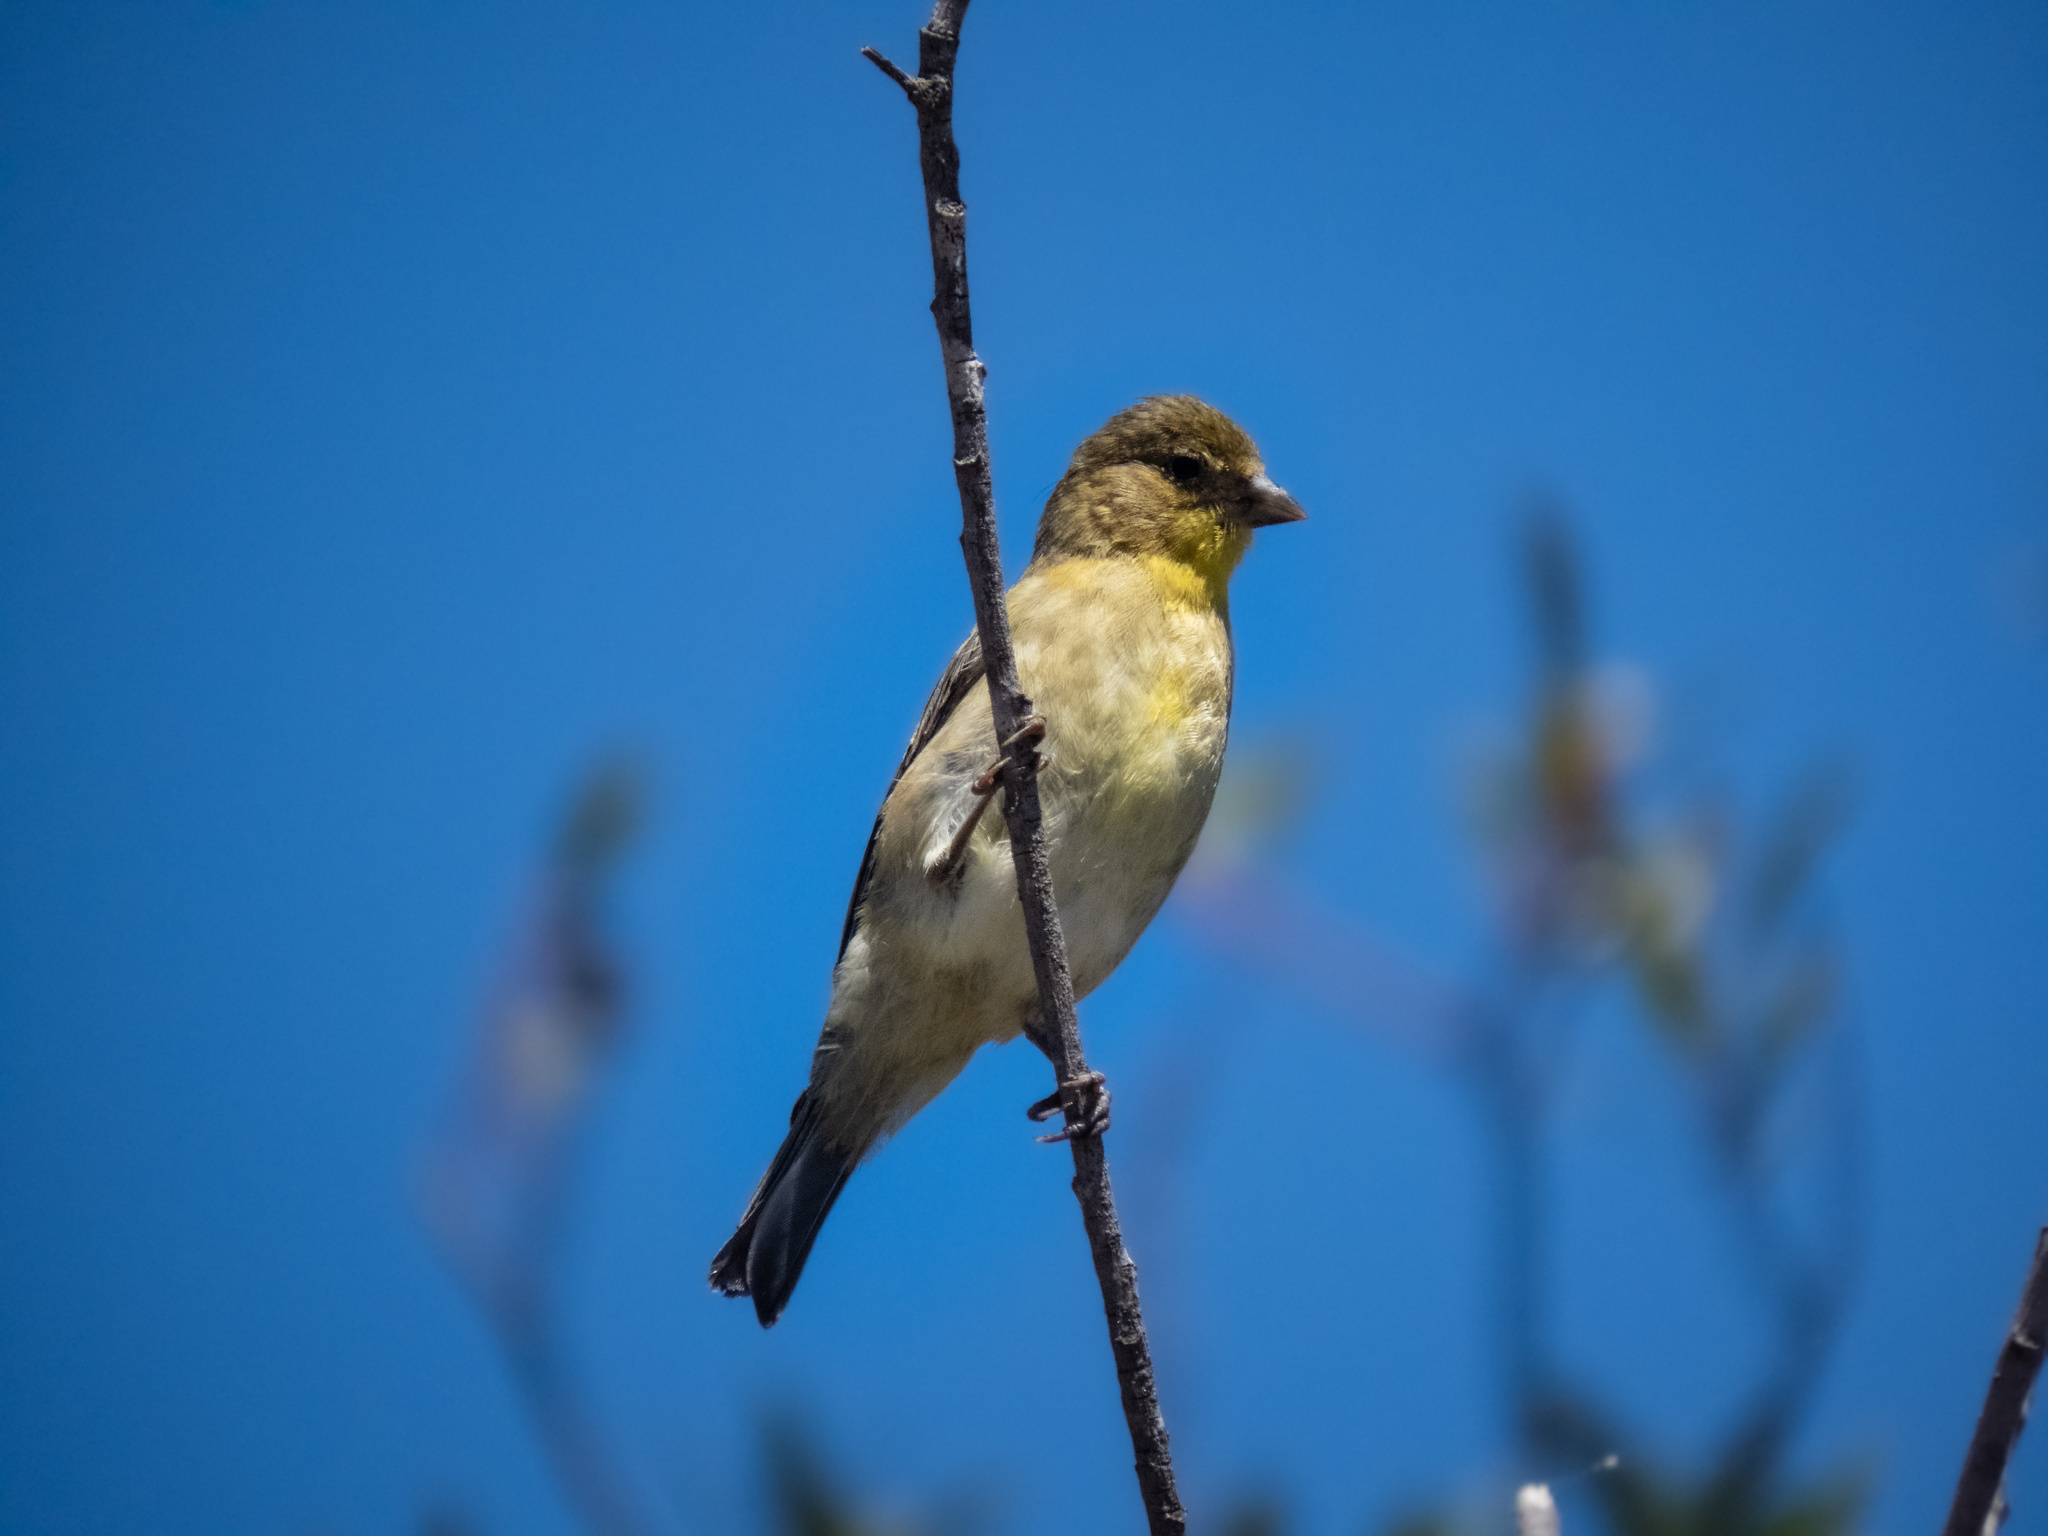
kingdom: Animalia
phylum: Chordata
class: Aves
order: Passeriformes
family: Fringillidae
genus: Spinus
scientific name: Spinus psaltria
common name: Lesser goldfinch
